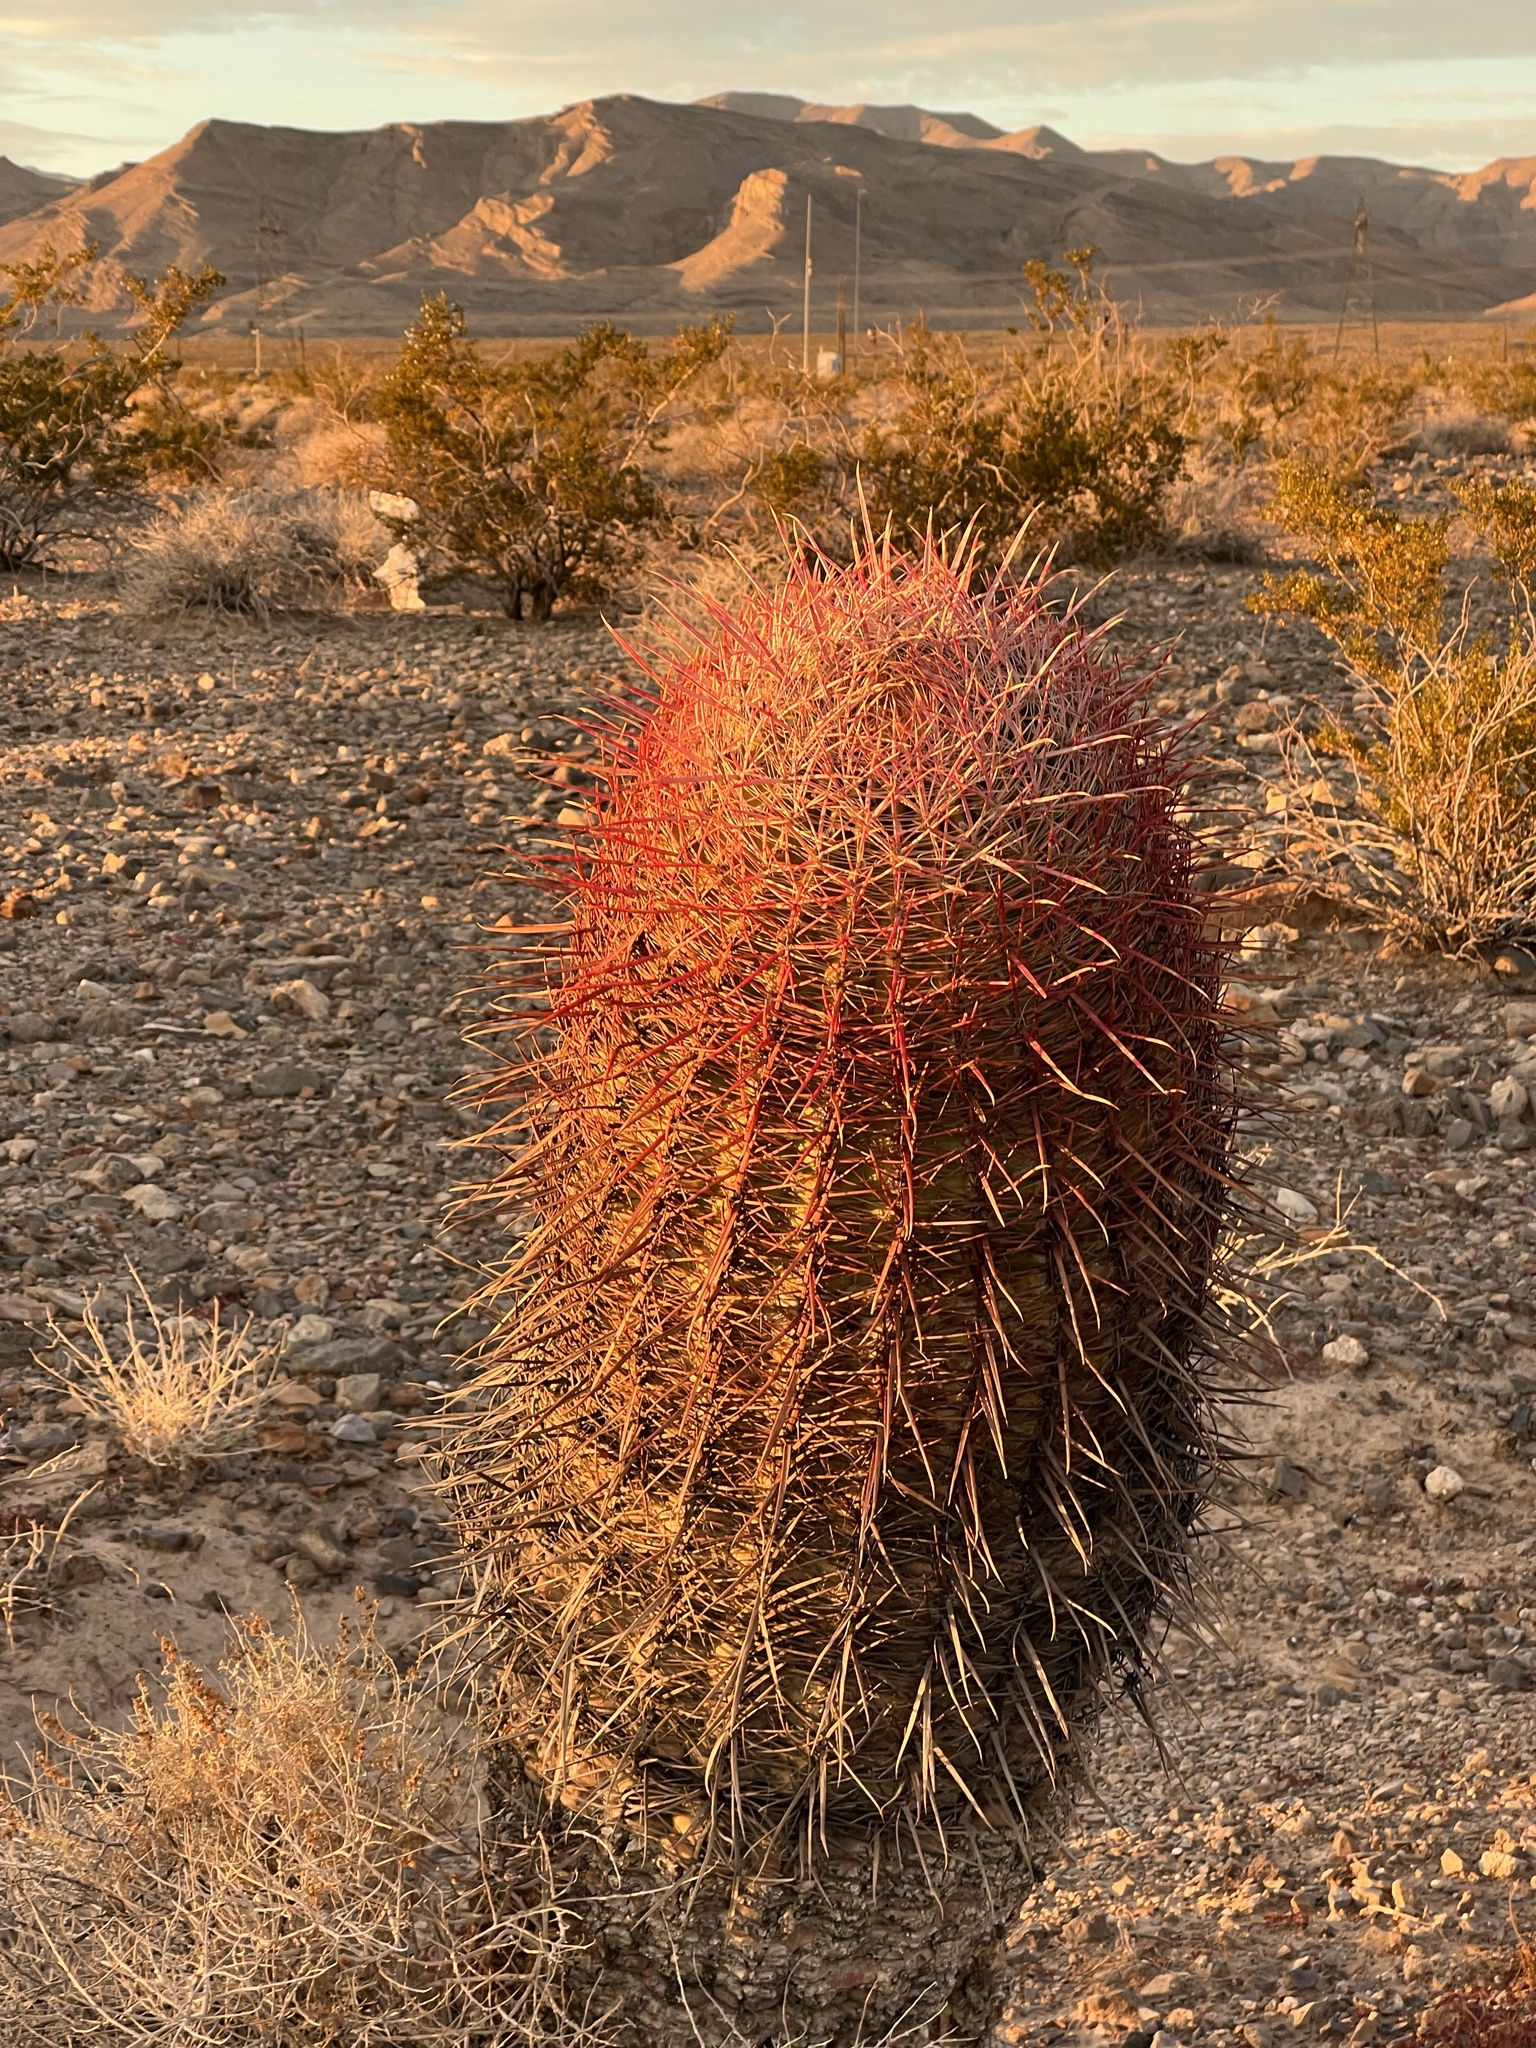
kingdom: Plantae
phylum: Tracheophyta
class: Magnoliopsida
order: Caryophyllales
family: Cactaceae
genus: Ferocactus
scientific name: Ferocactus cylindraceus
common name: California barrel cactus
